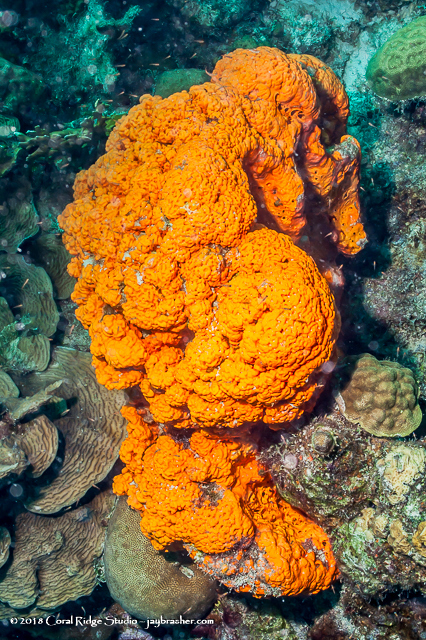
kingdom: Animalia
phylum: Porifera
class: Demospongiae
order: Agelasida
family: Agelasidae
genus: Agelas
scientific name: Agelas clathrodes
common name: Orange elephant ear sponge
